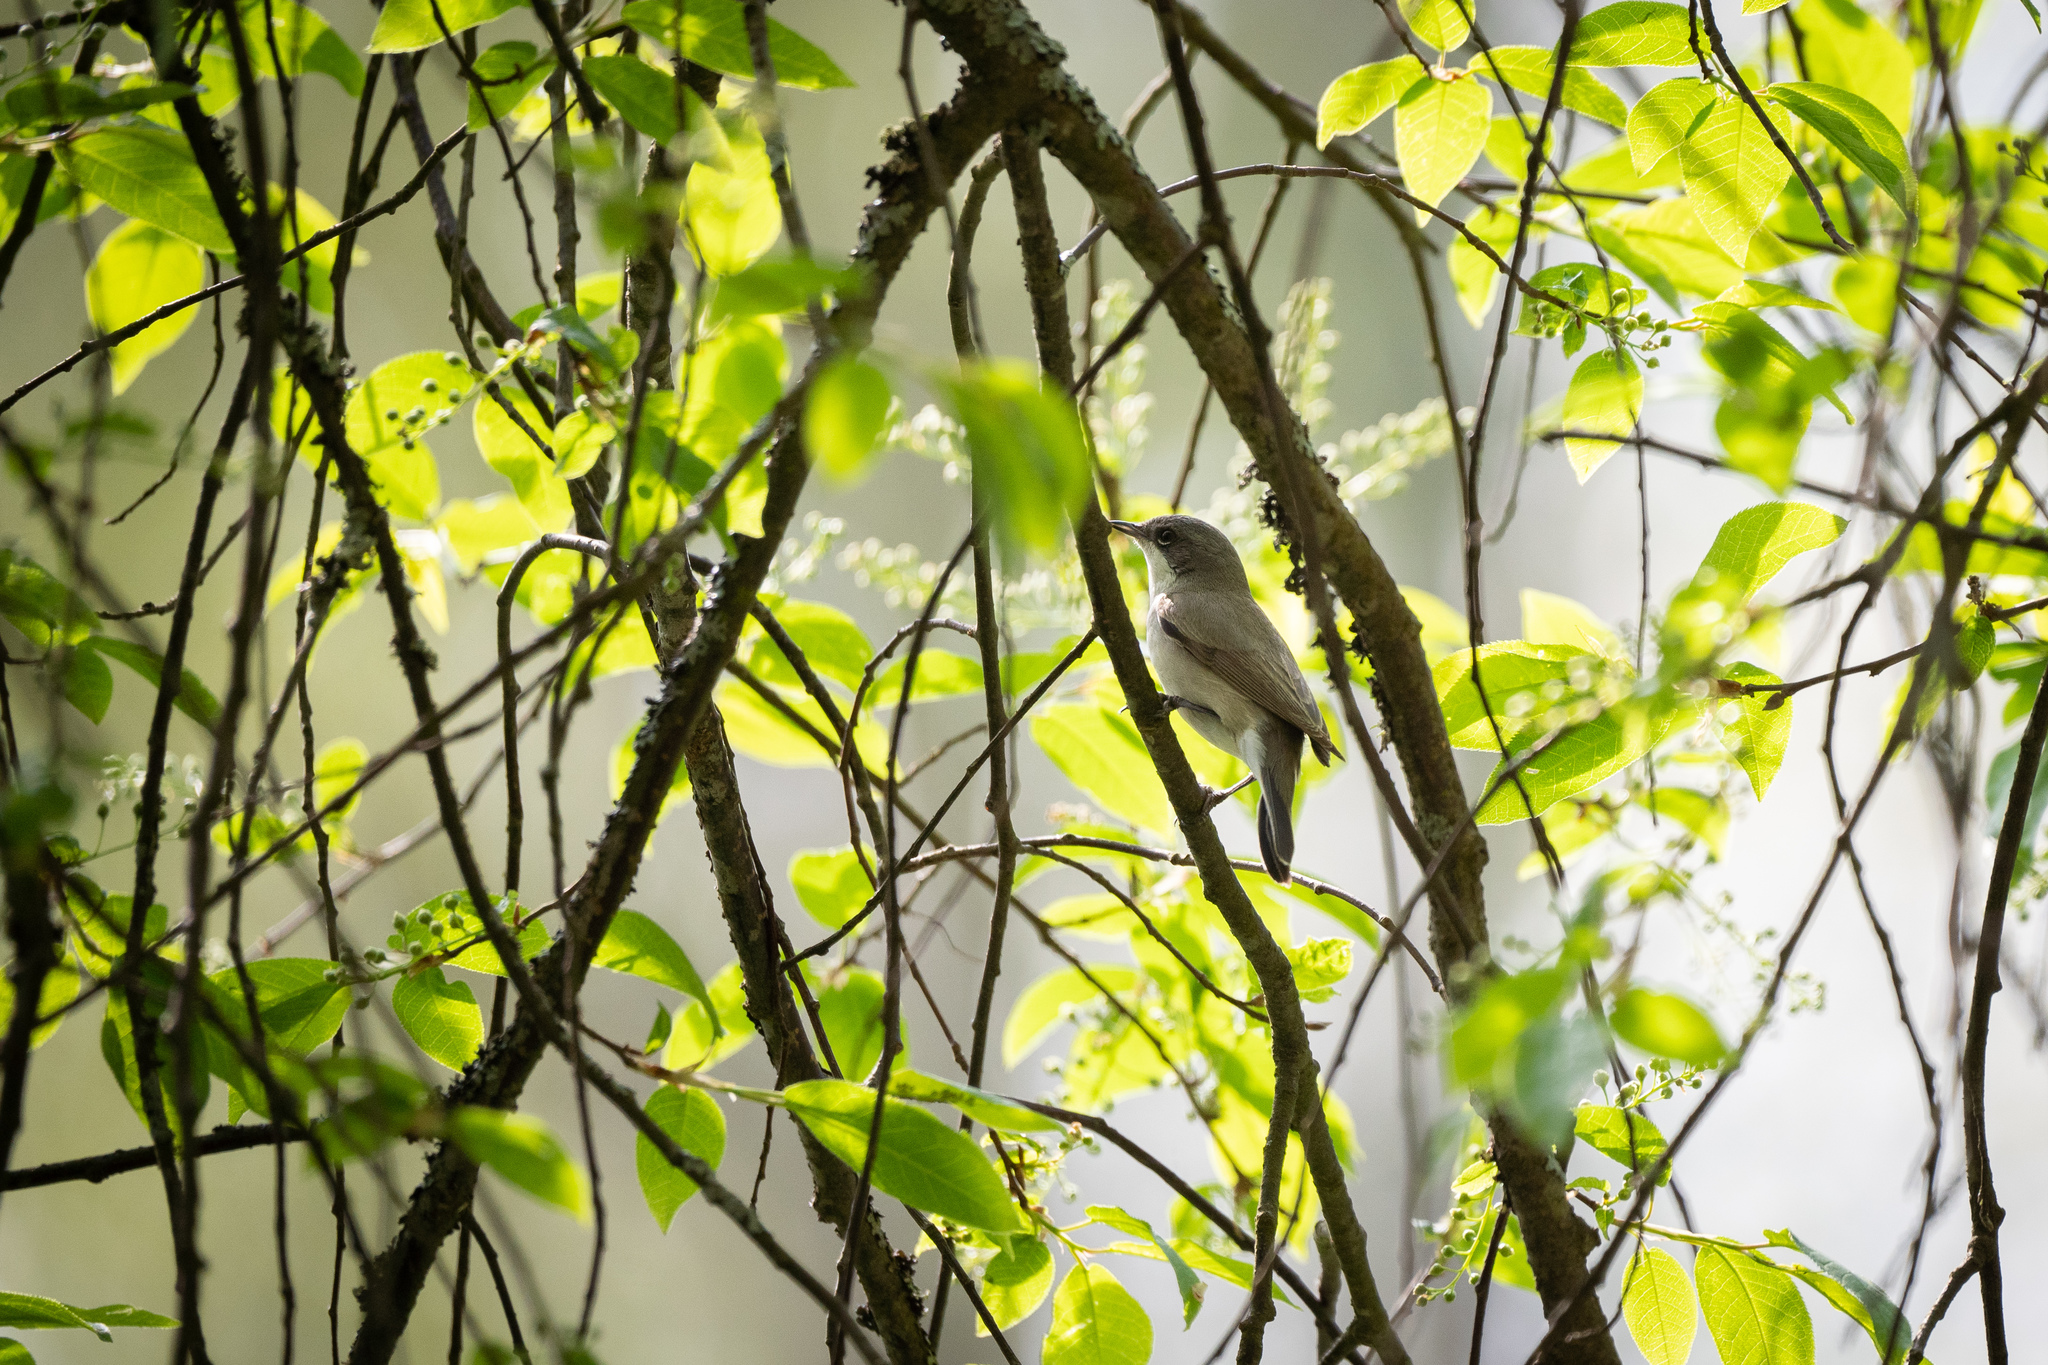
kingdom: Animalia
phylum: Chordata
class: Aves
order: Passeriformes
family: Sylviidae
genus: Sylvia
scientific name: Sylvia curruca
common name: Lesser whitethroat
